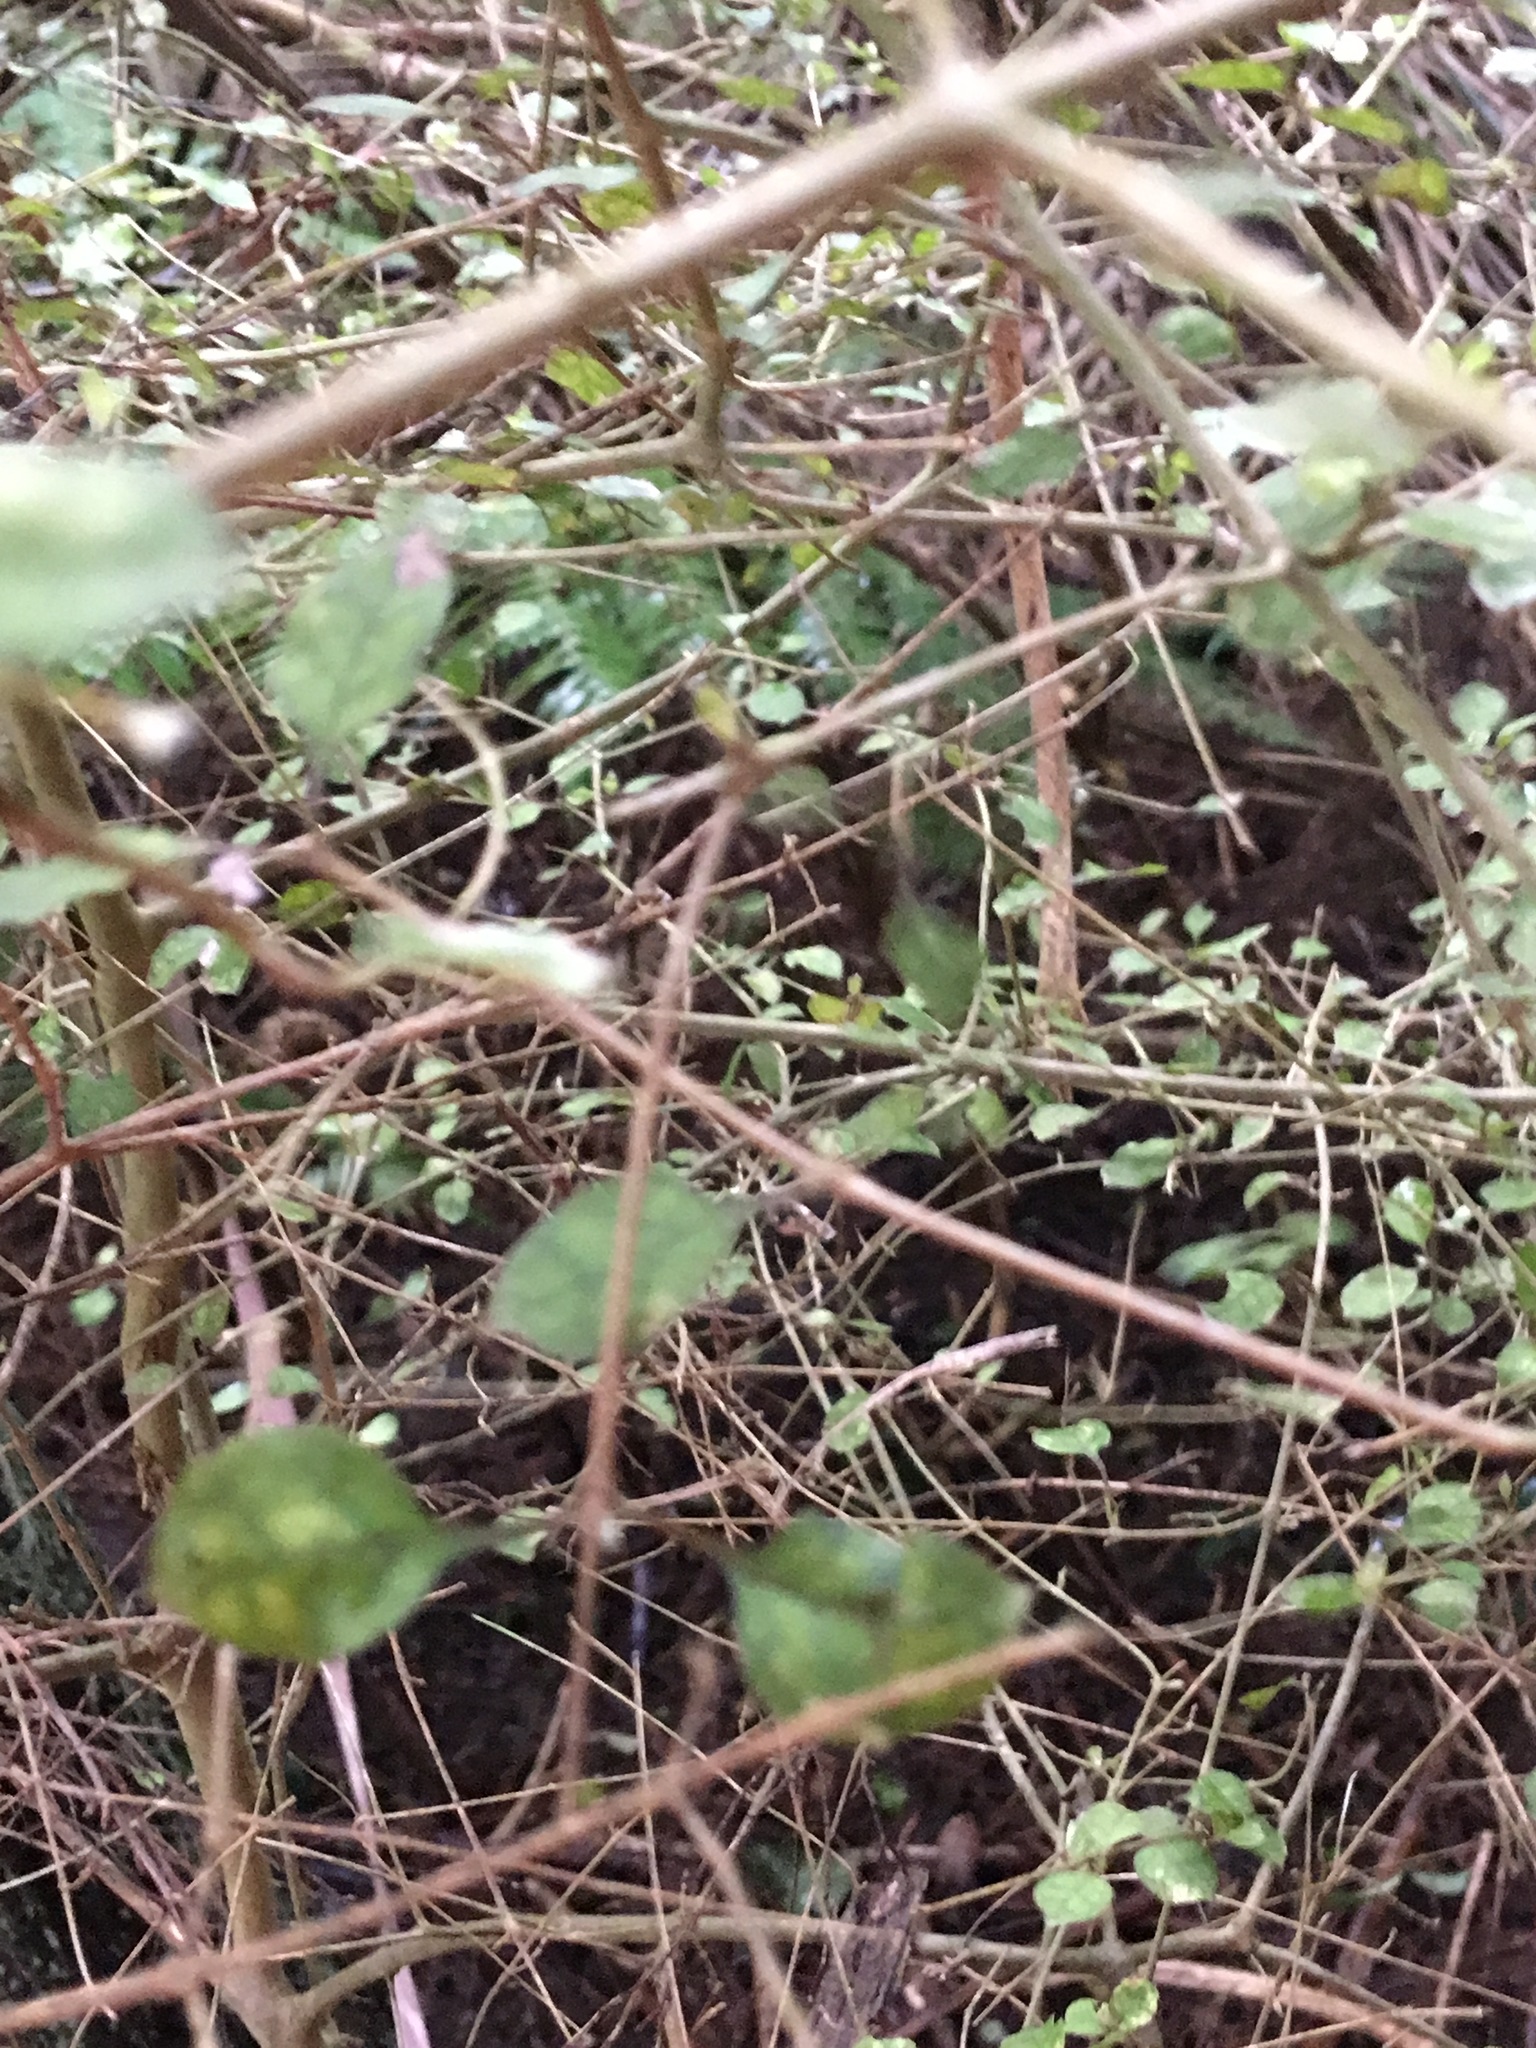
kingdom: Plantae
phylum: Tracheophyta
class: Magnoliopsida
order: Gentianales
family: Rubiaceae
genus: Coprosma
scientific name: Coprosma areolata
